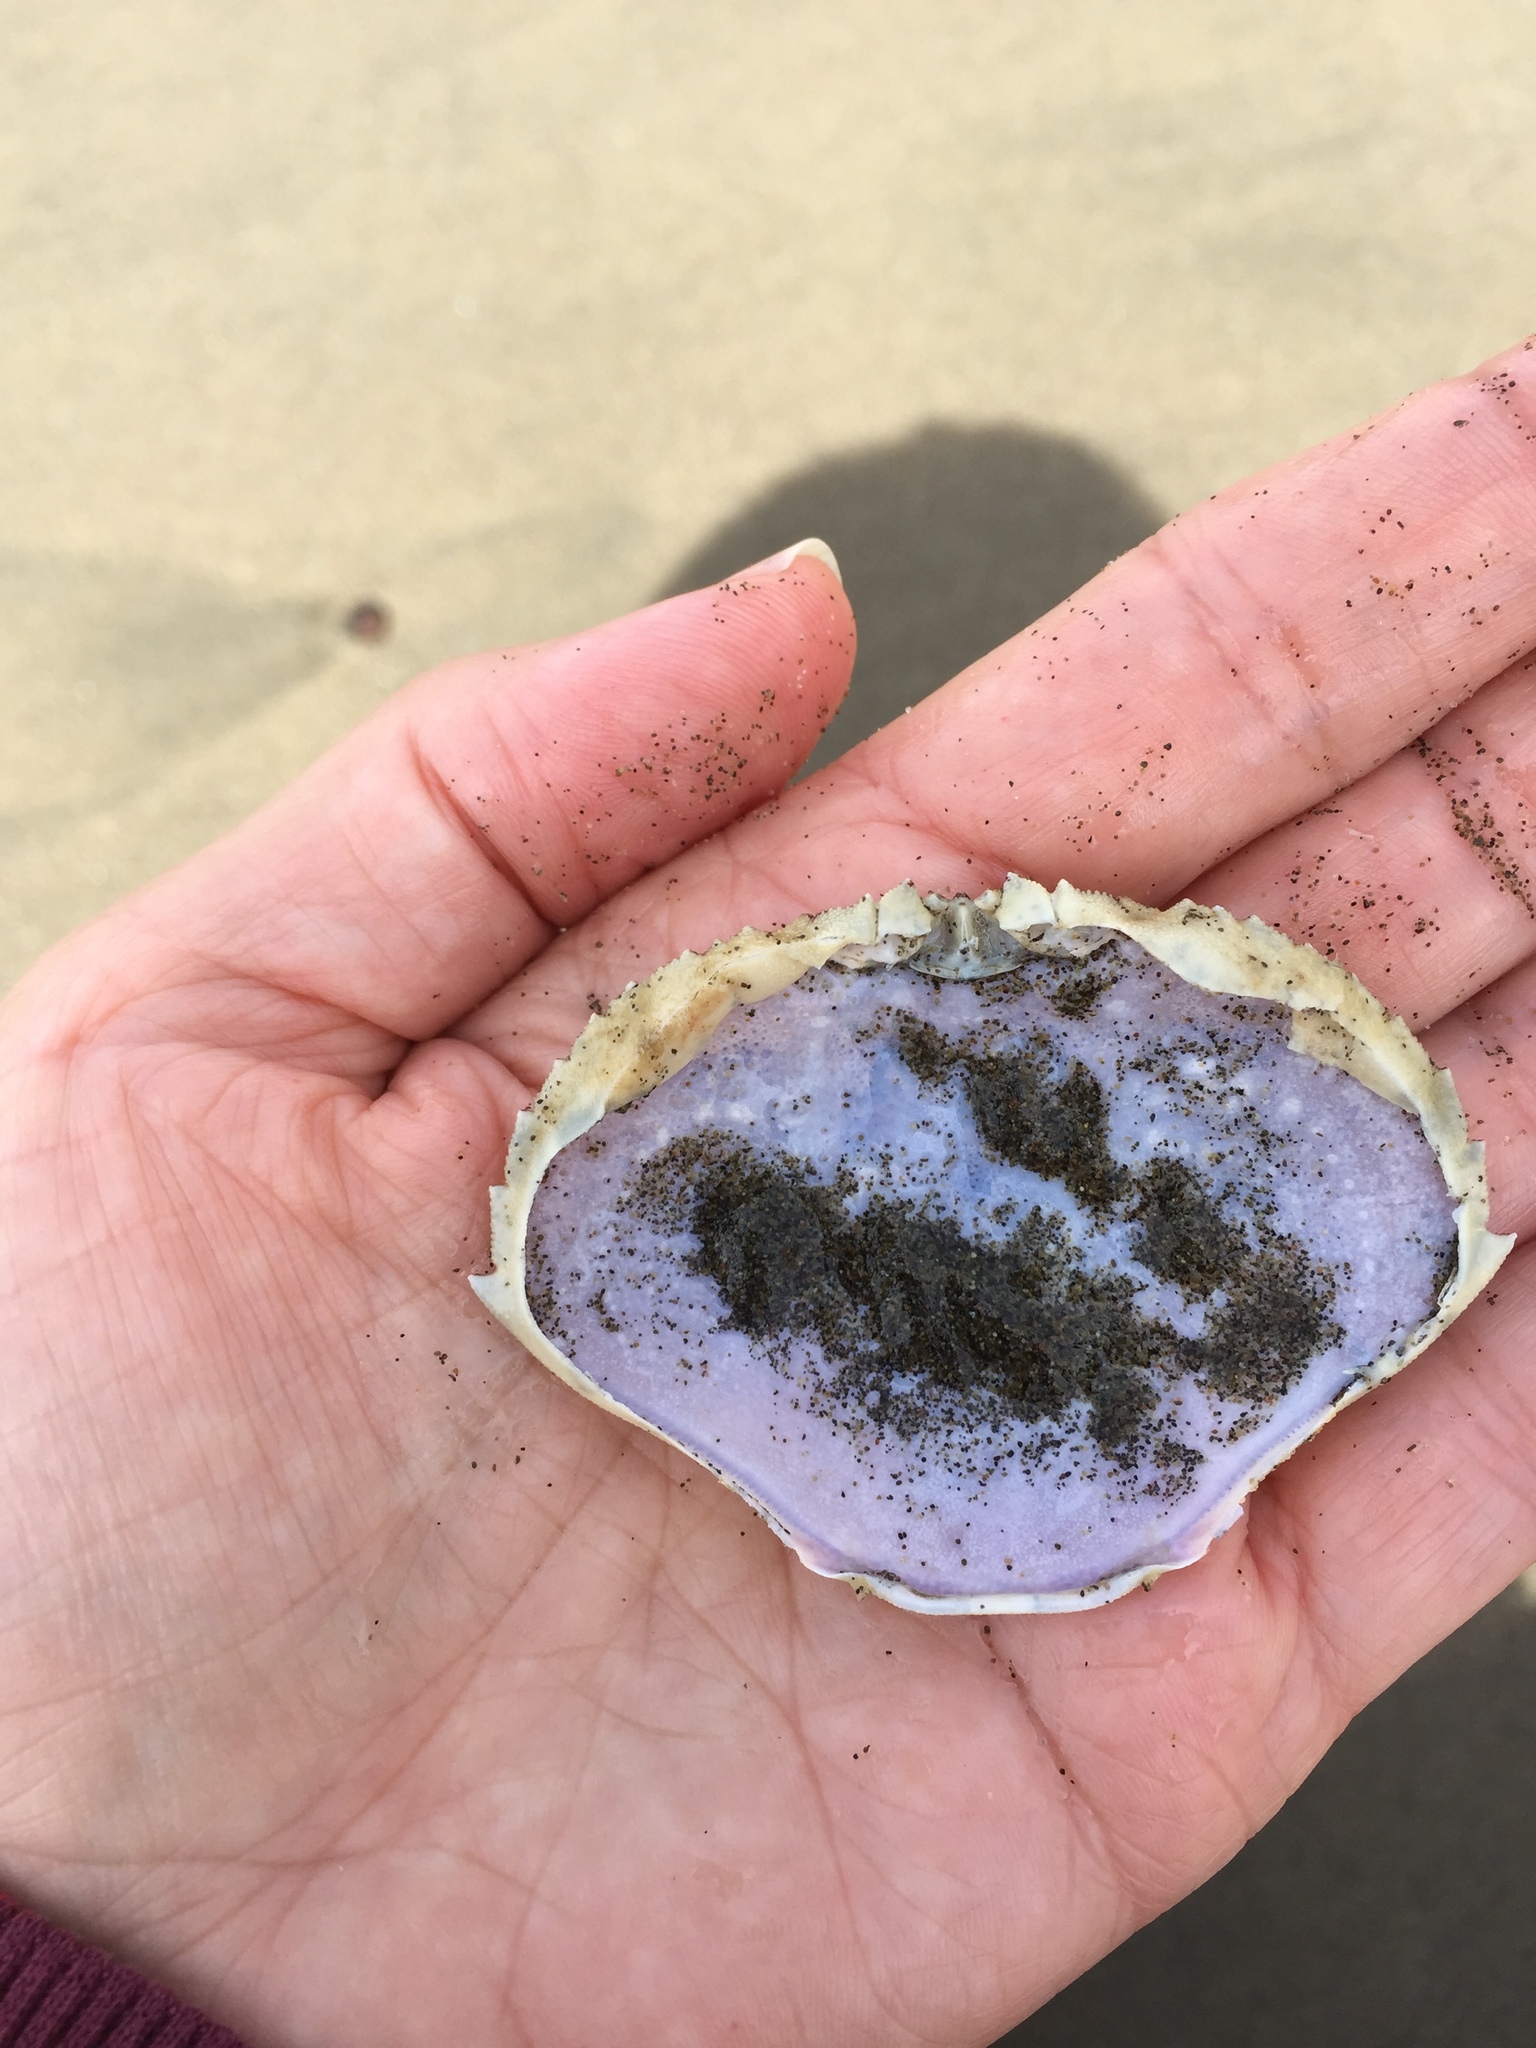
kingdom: Animalia
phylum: Arthropoda
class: Malacostraca
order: Decapoda
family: Cancridae
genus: Metacarcinus
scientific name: Metacarcinus magister
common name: Californian crab
